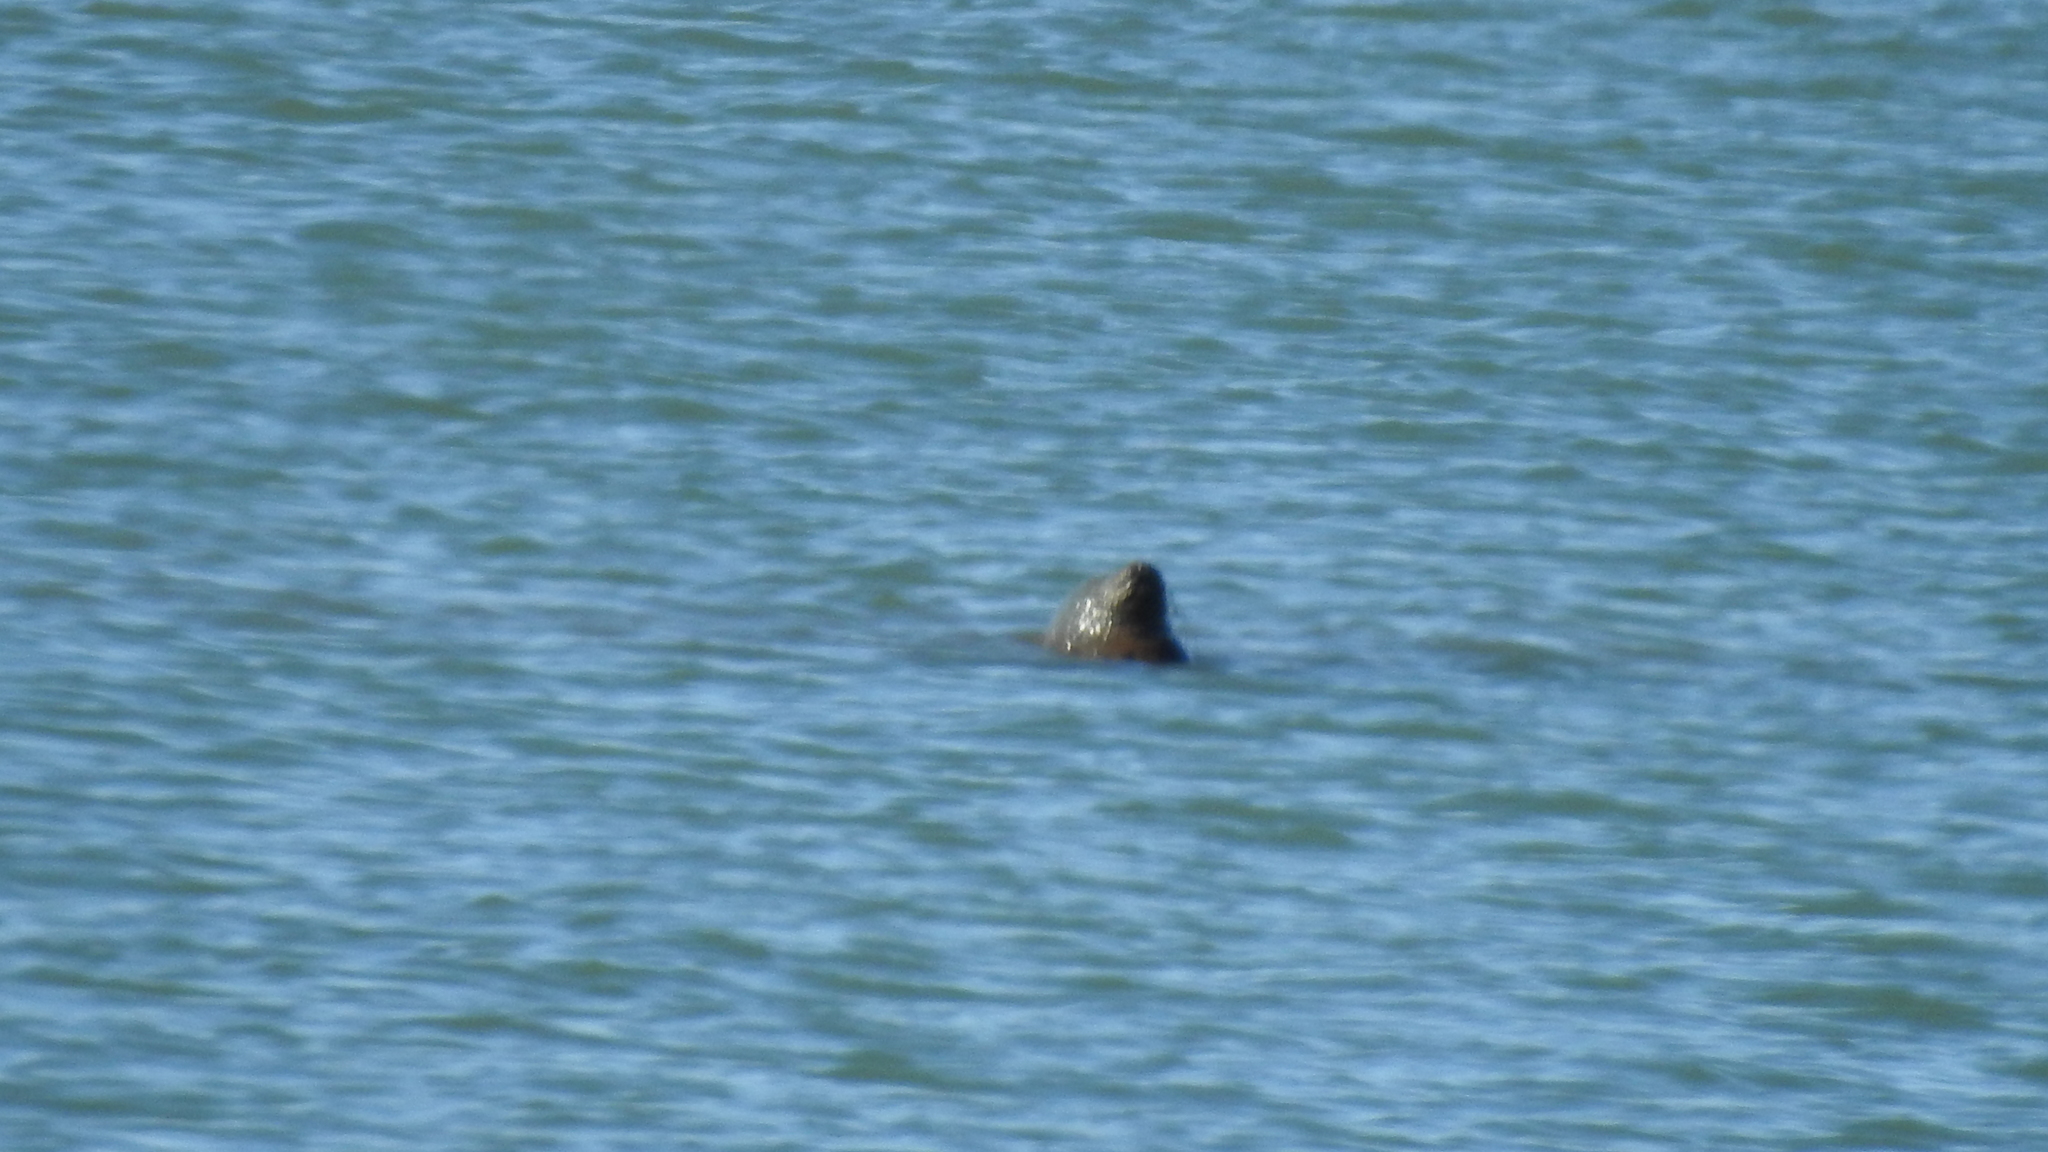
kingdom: Animalia
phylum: Chordata
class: Mammalia
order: Carnivora
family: Phocidae
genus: Phoca
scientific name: Phoca vitulina
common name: Harbor seal
